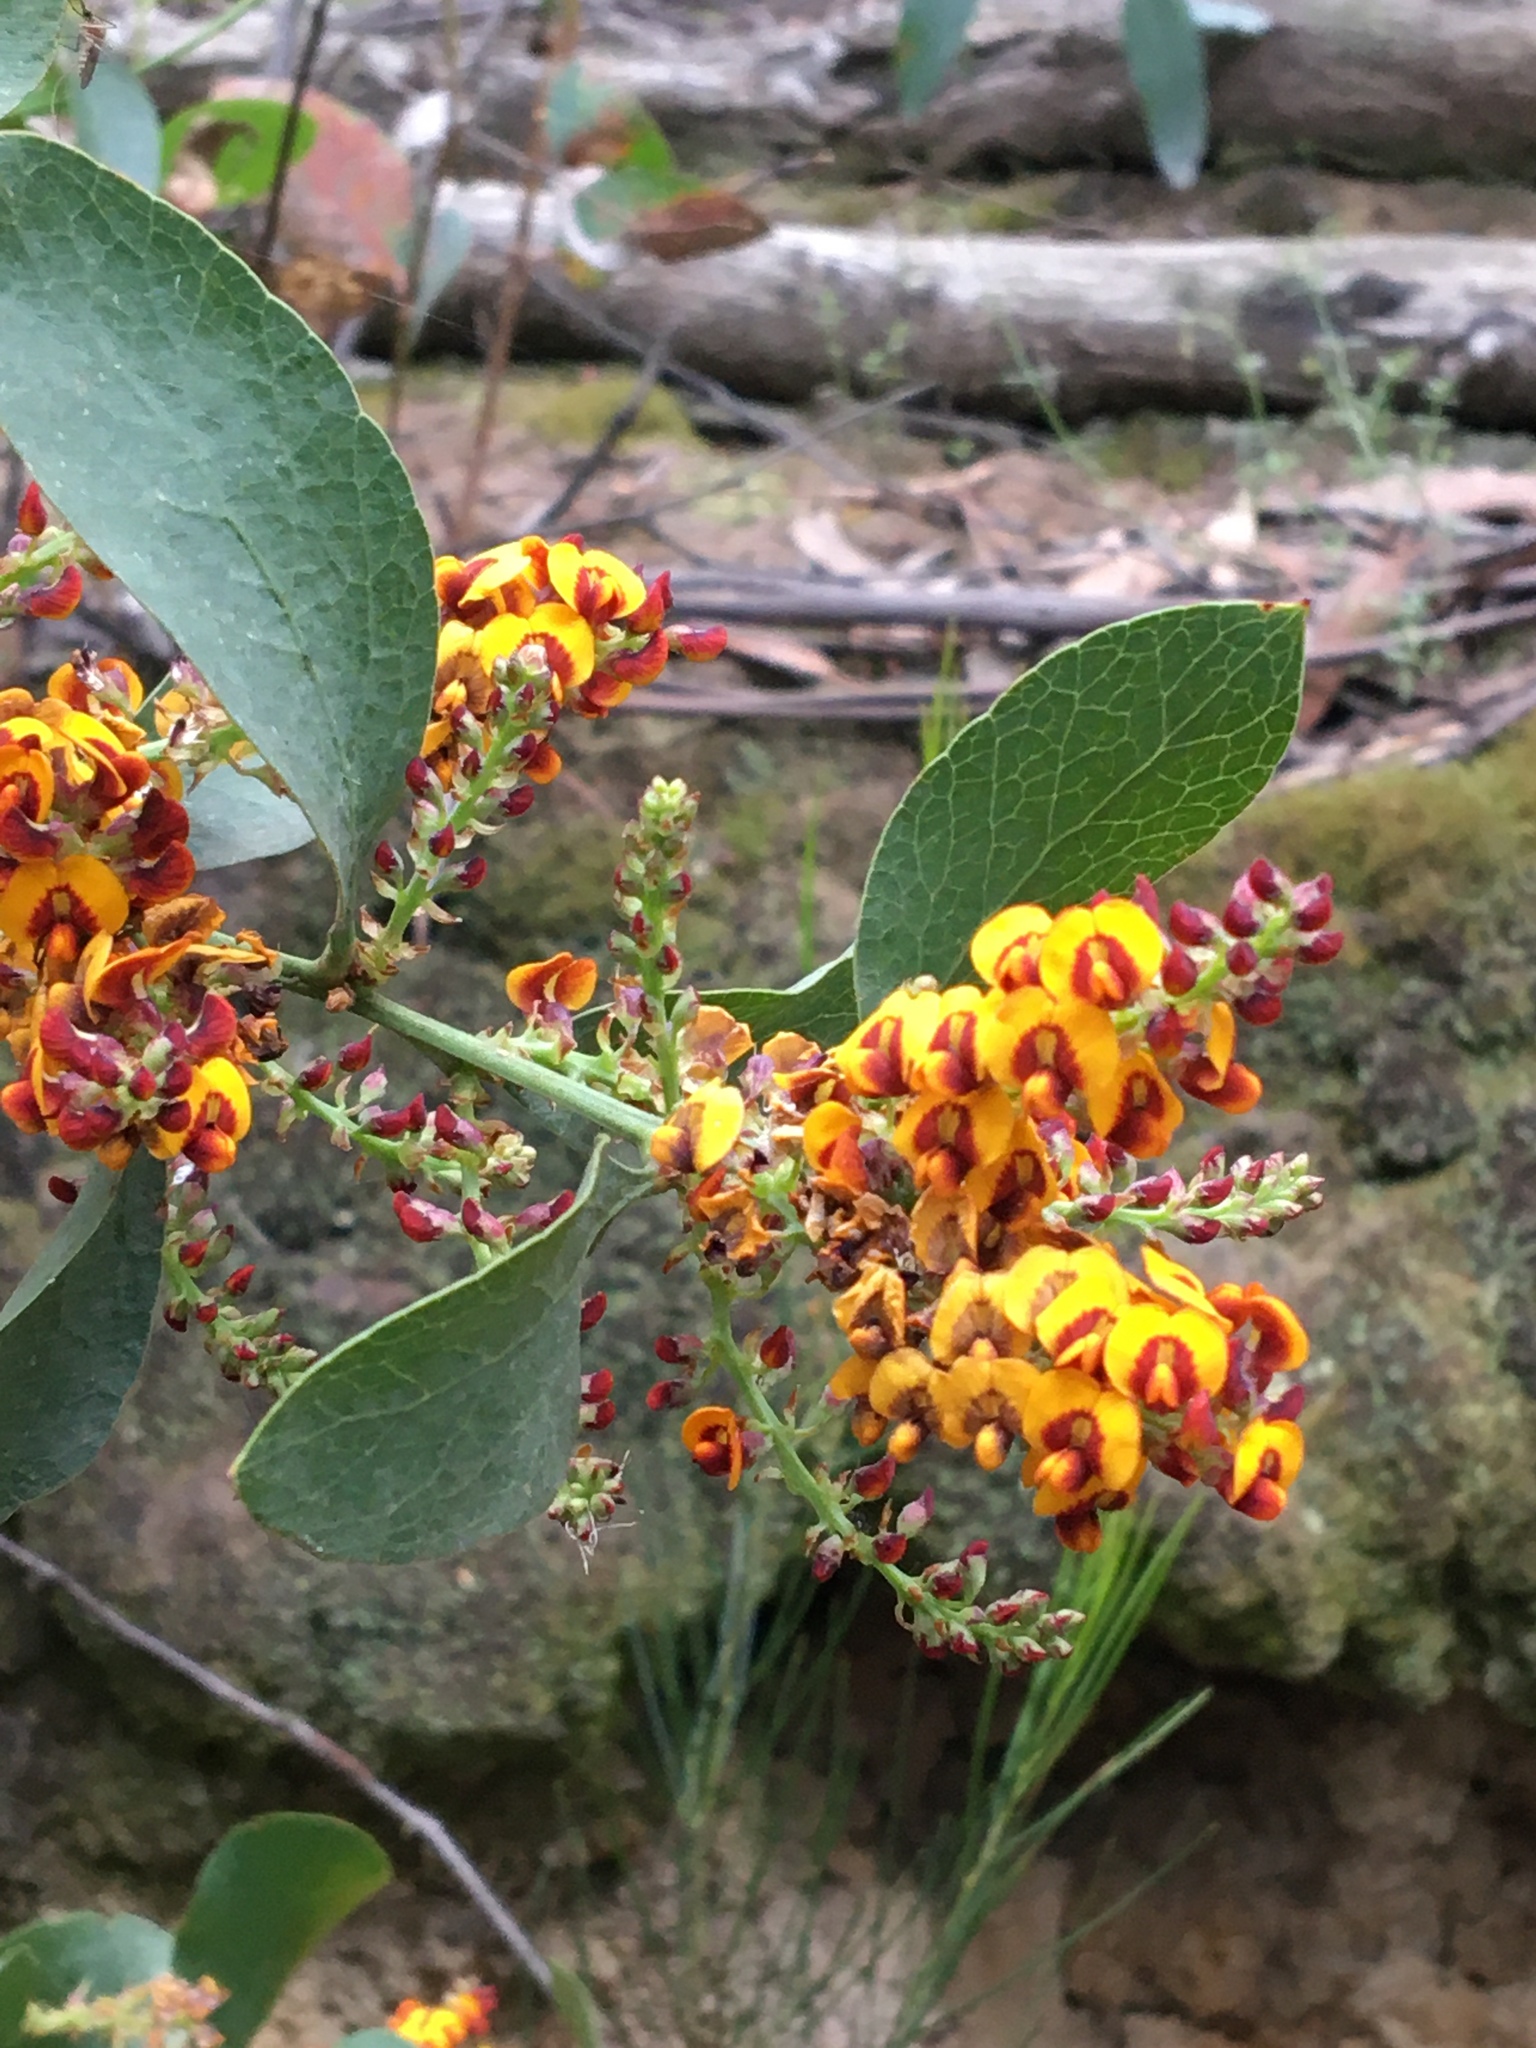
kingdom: Plantae
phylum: Tracheophyta
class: Magnoliopsida
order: Fabales
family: Fabaceae
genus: Daviesia
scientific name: Daviesia latifolia
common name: Hop bitter-pea
